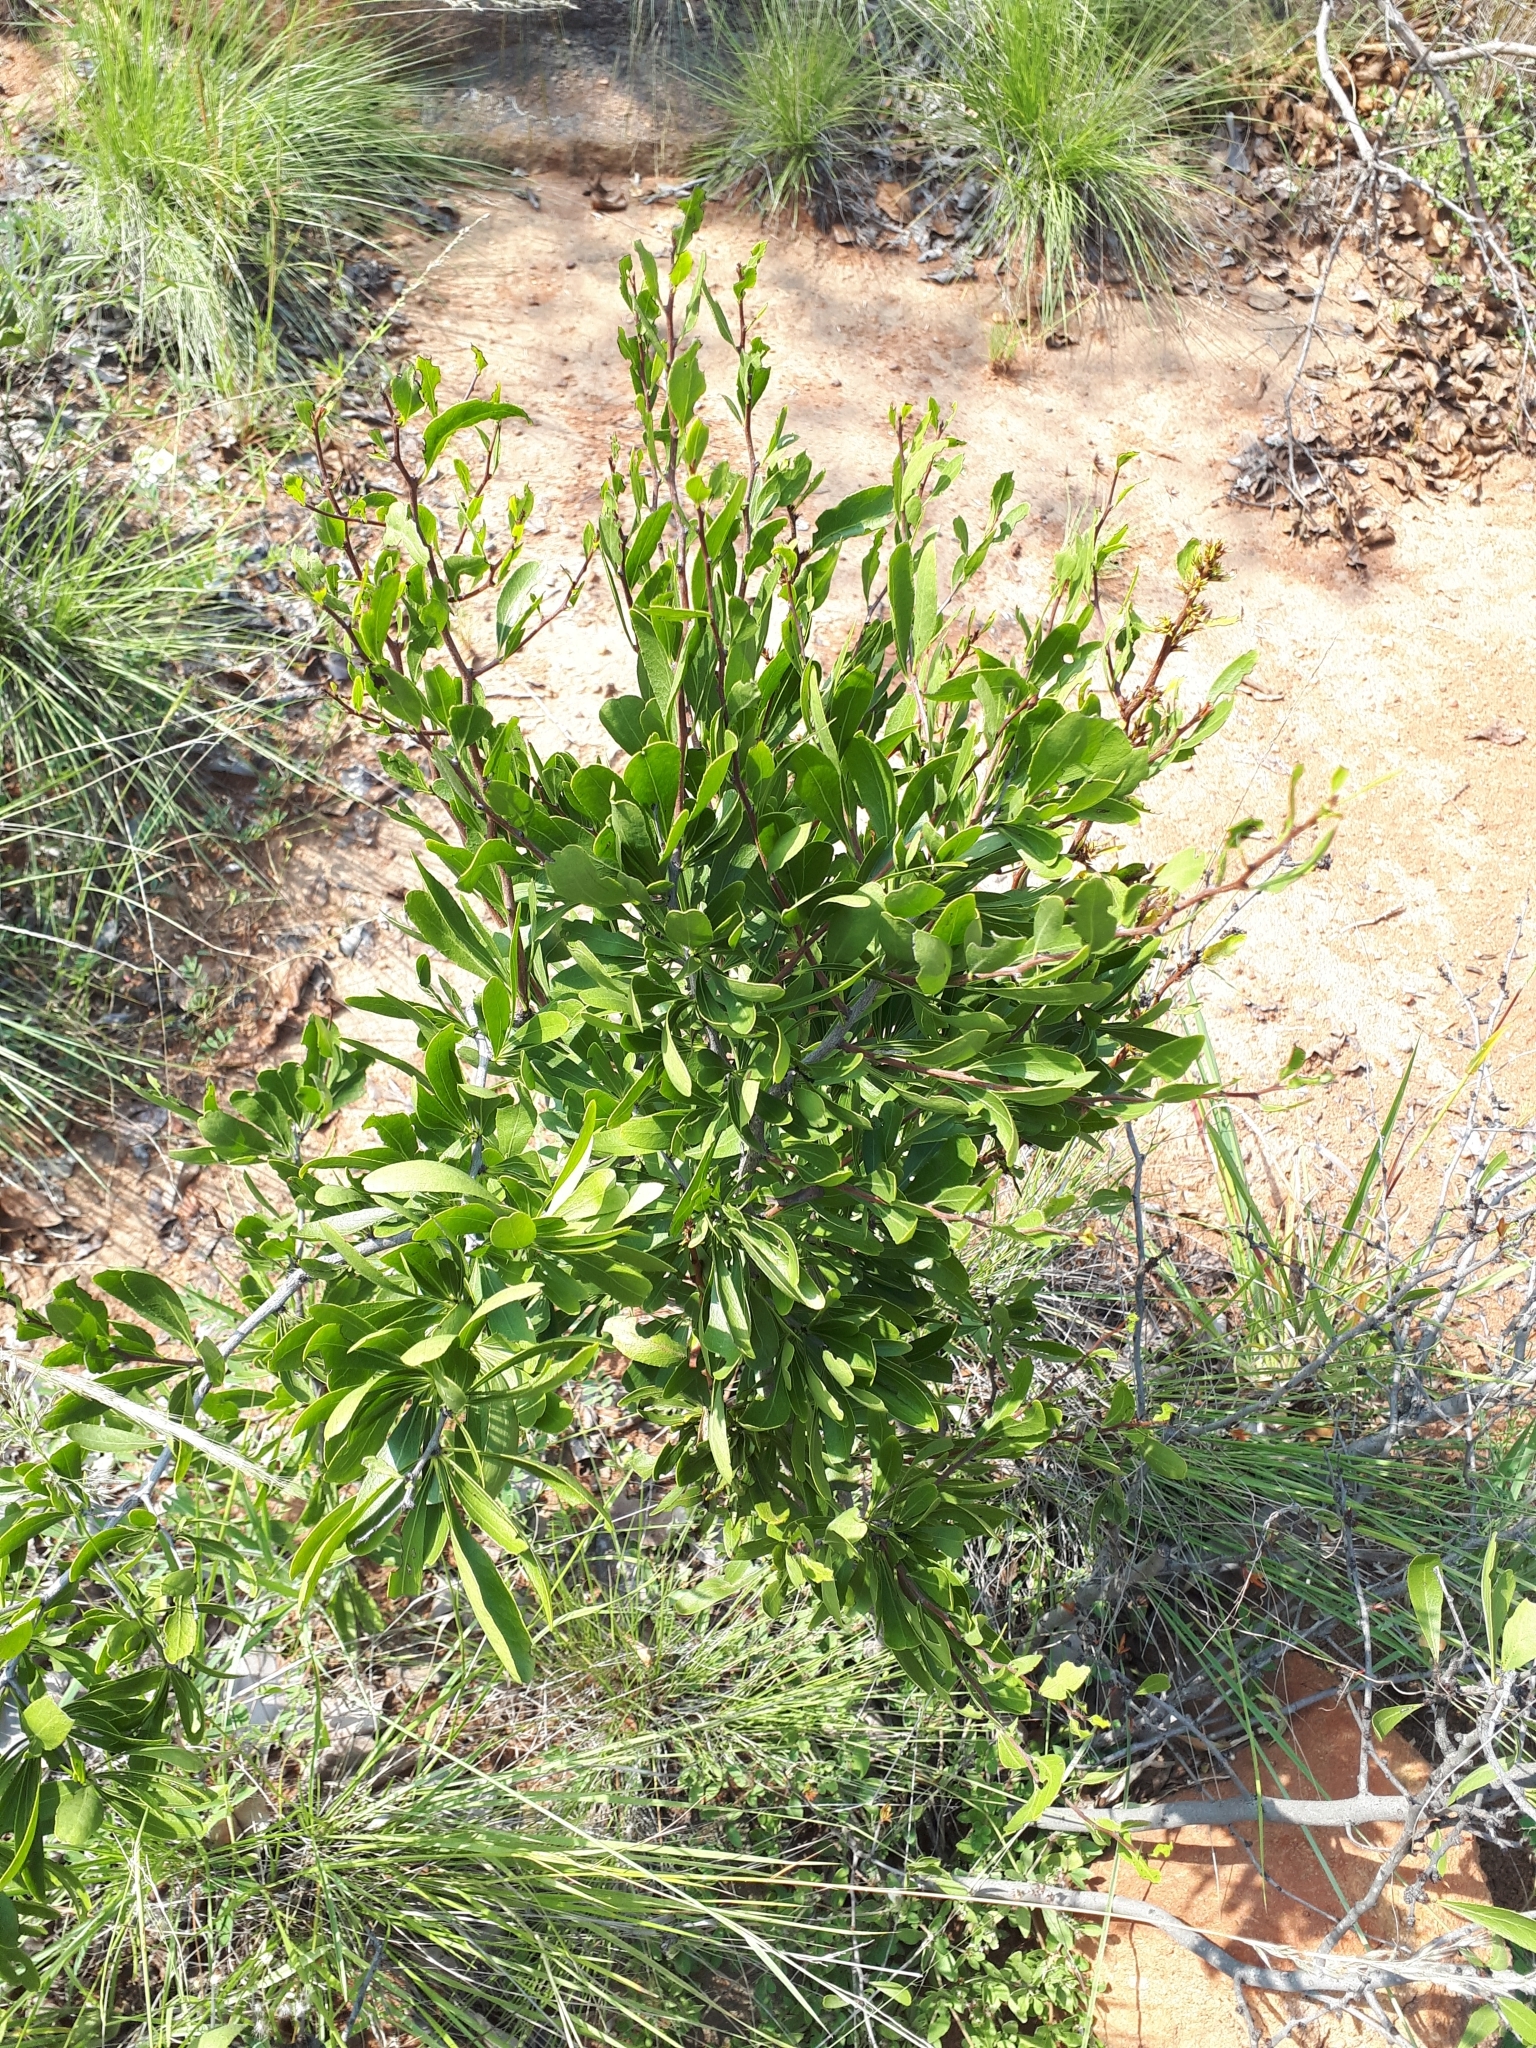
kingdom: Plantae
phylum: Tracheophyta
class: Magnoliopsida
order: Celastrales
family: Celastraceae
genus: Gymnosporia
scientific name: Gymnosporia tenuispina
